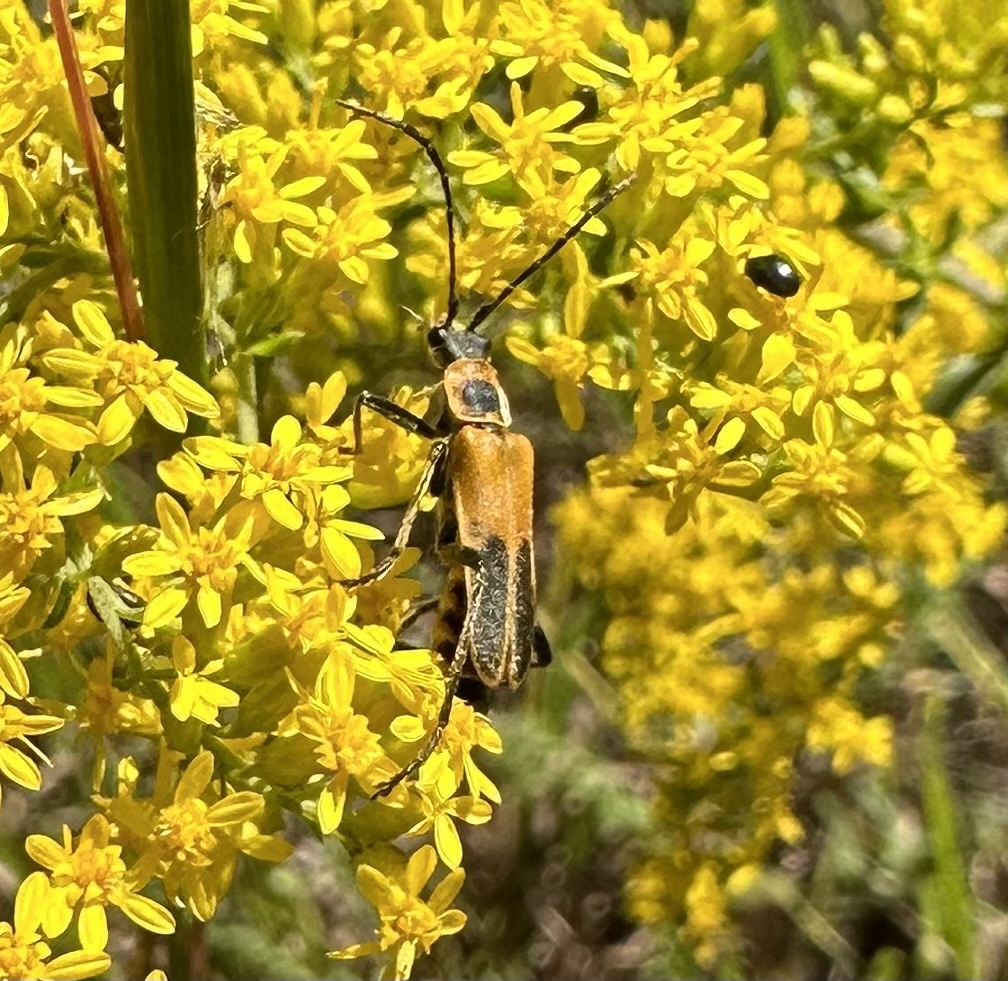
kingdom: Animalia
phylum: Arthropoda
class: Insecta
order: Coleoptera
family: Cantharidae
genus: Chauliognathus
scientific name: Chauliognathus pensylvanicus
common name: Goldenrod soldier beetle
